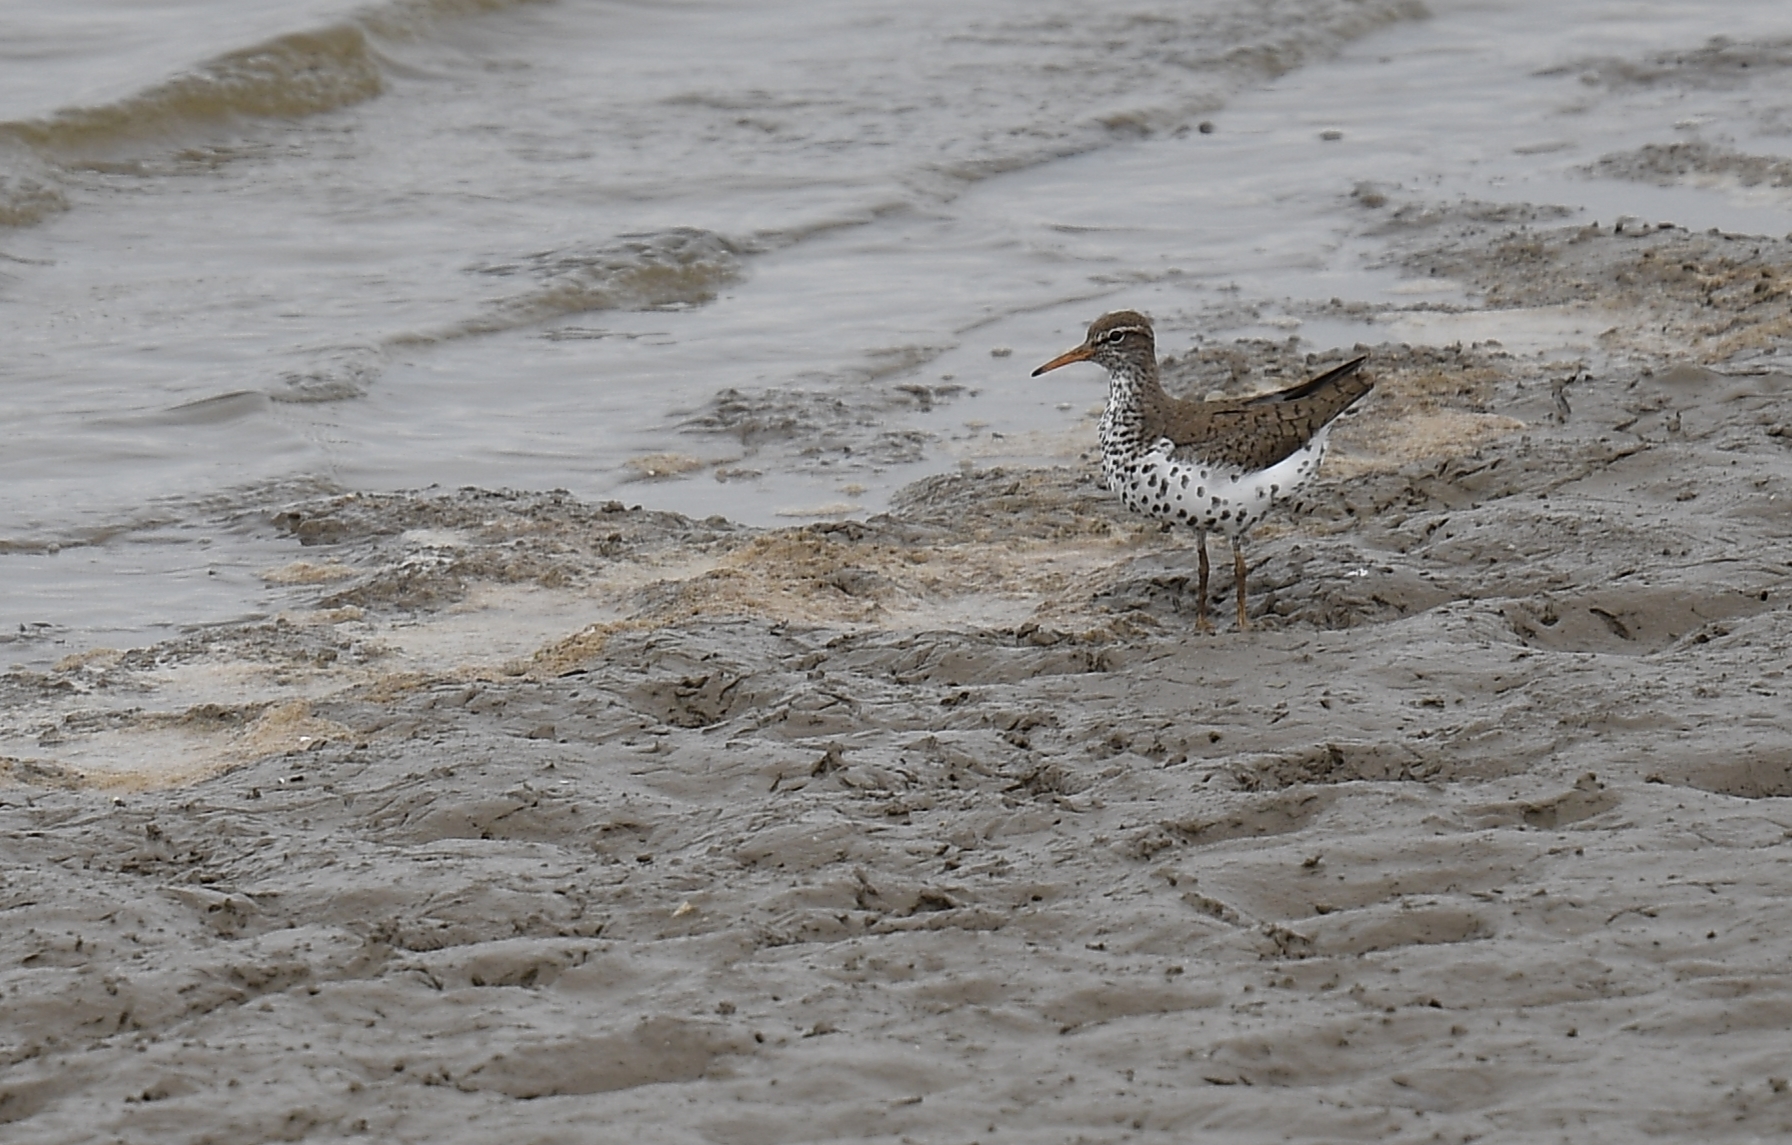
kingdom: Animalia
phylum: Chordata
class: Aves
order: Charadriiformes
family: Scolopacidae
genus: Actitis
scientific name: Actitis macularius
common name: Spotted sandpiper
